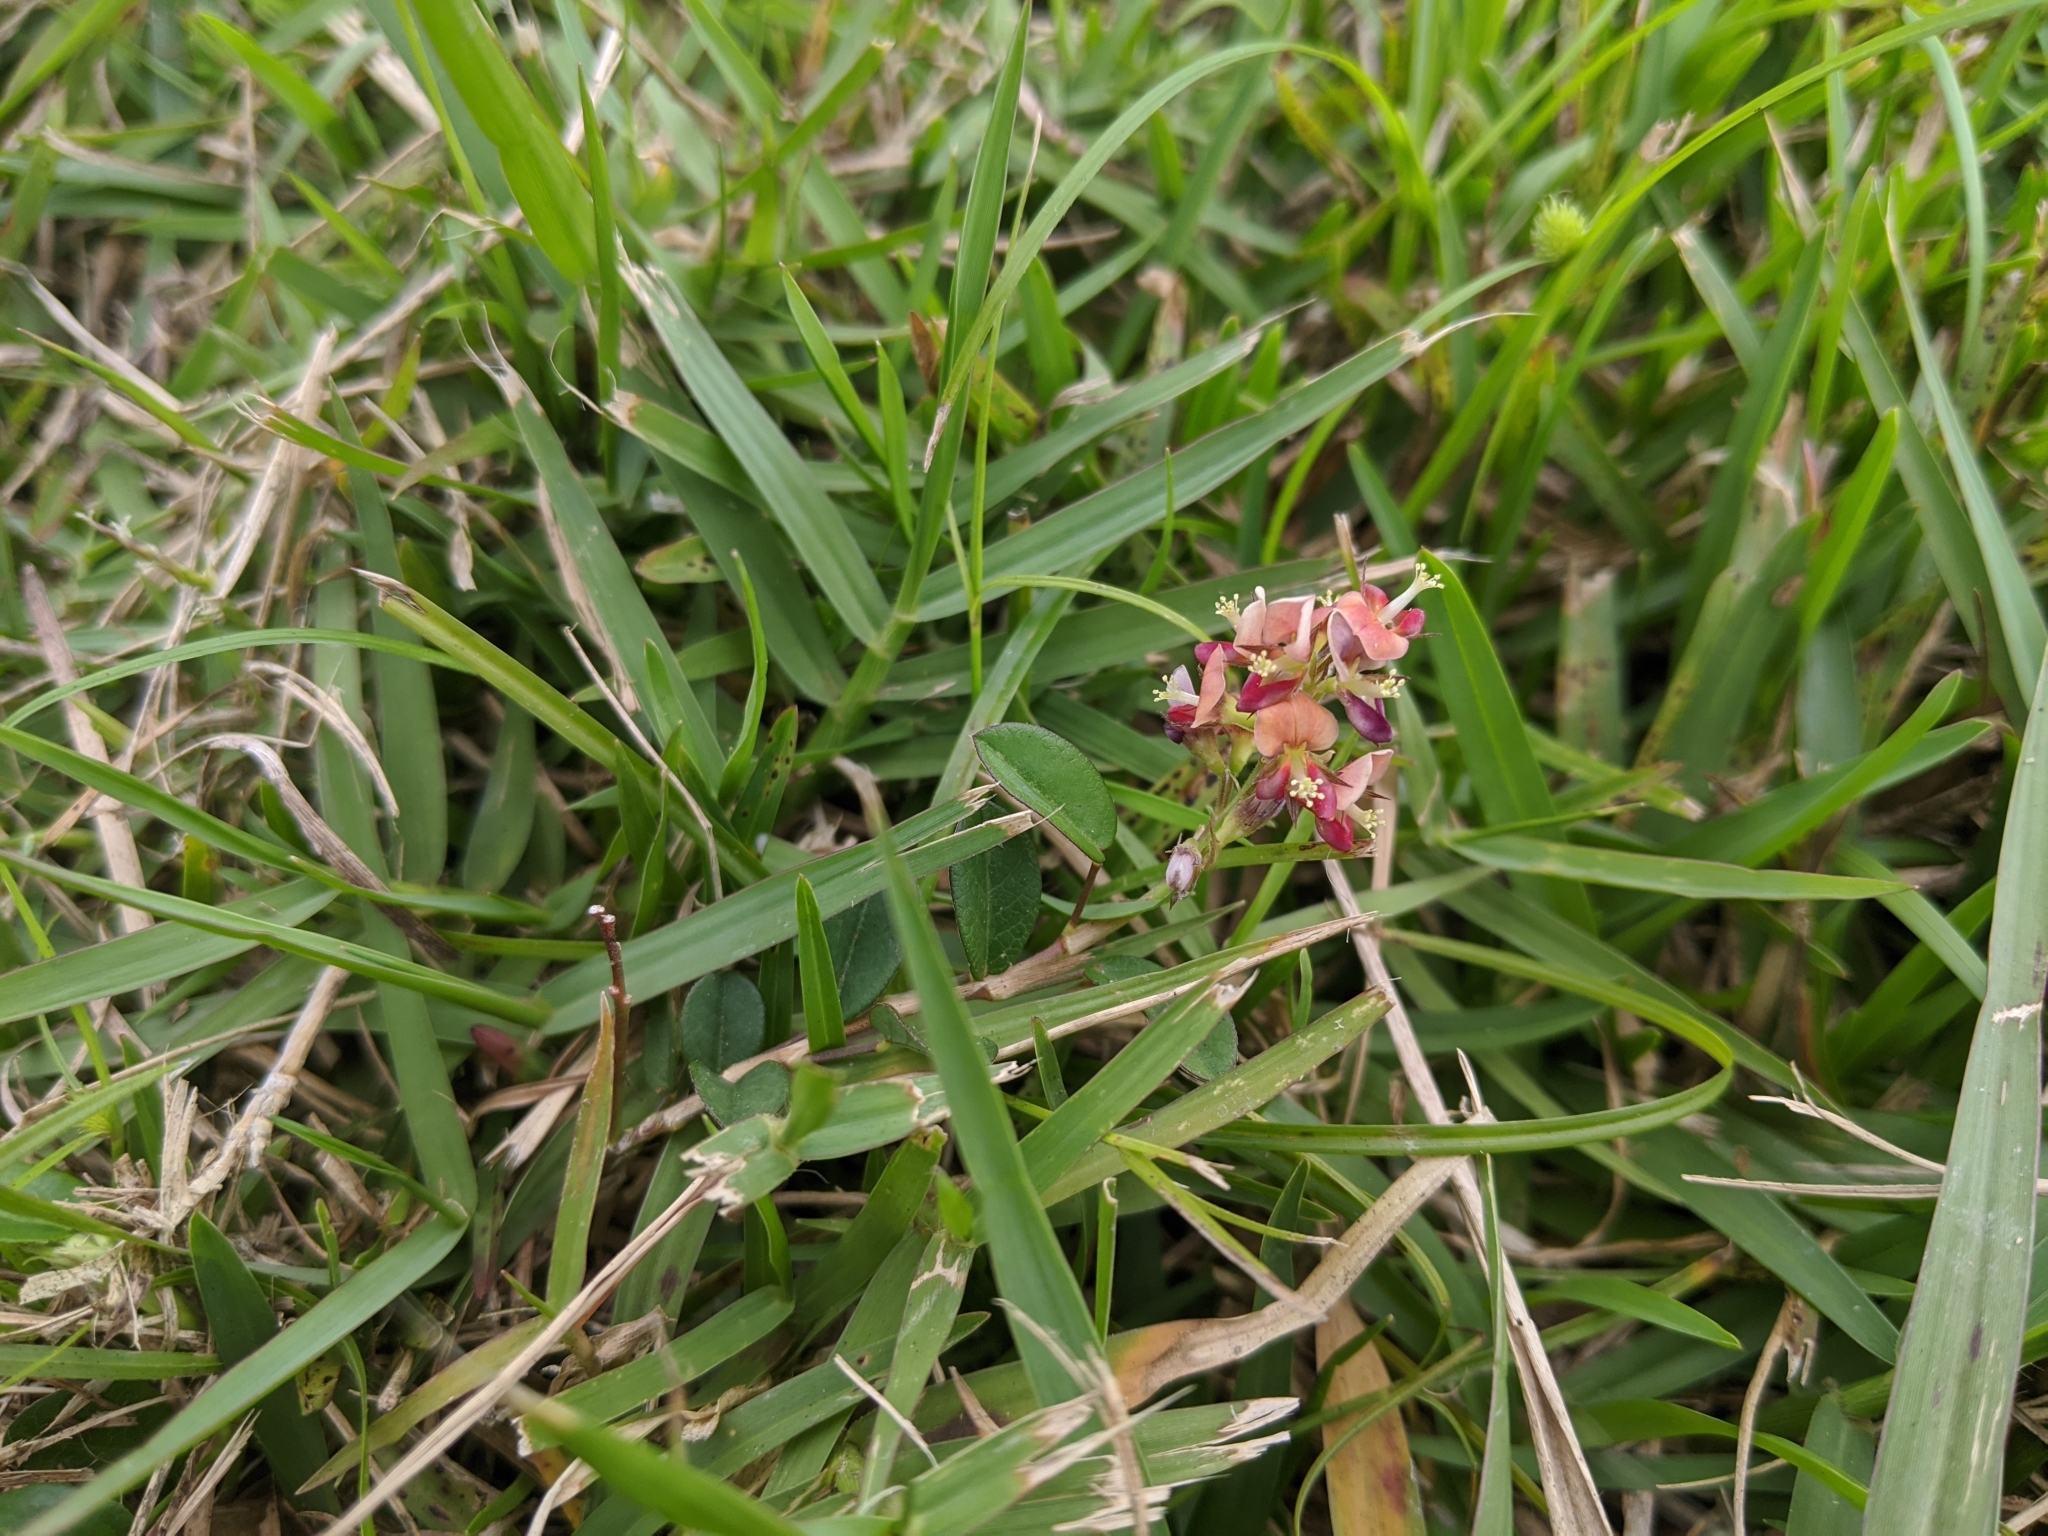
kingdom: Plantae
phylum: Tracheophyta
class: Magnoliopsida
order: Fabales
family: Fabaceae
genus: Alysicarpus
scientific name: Alysicarpus vaginalis
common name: White moneywort
